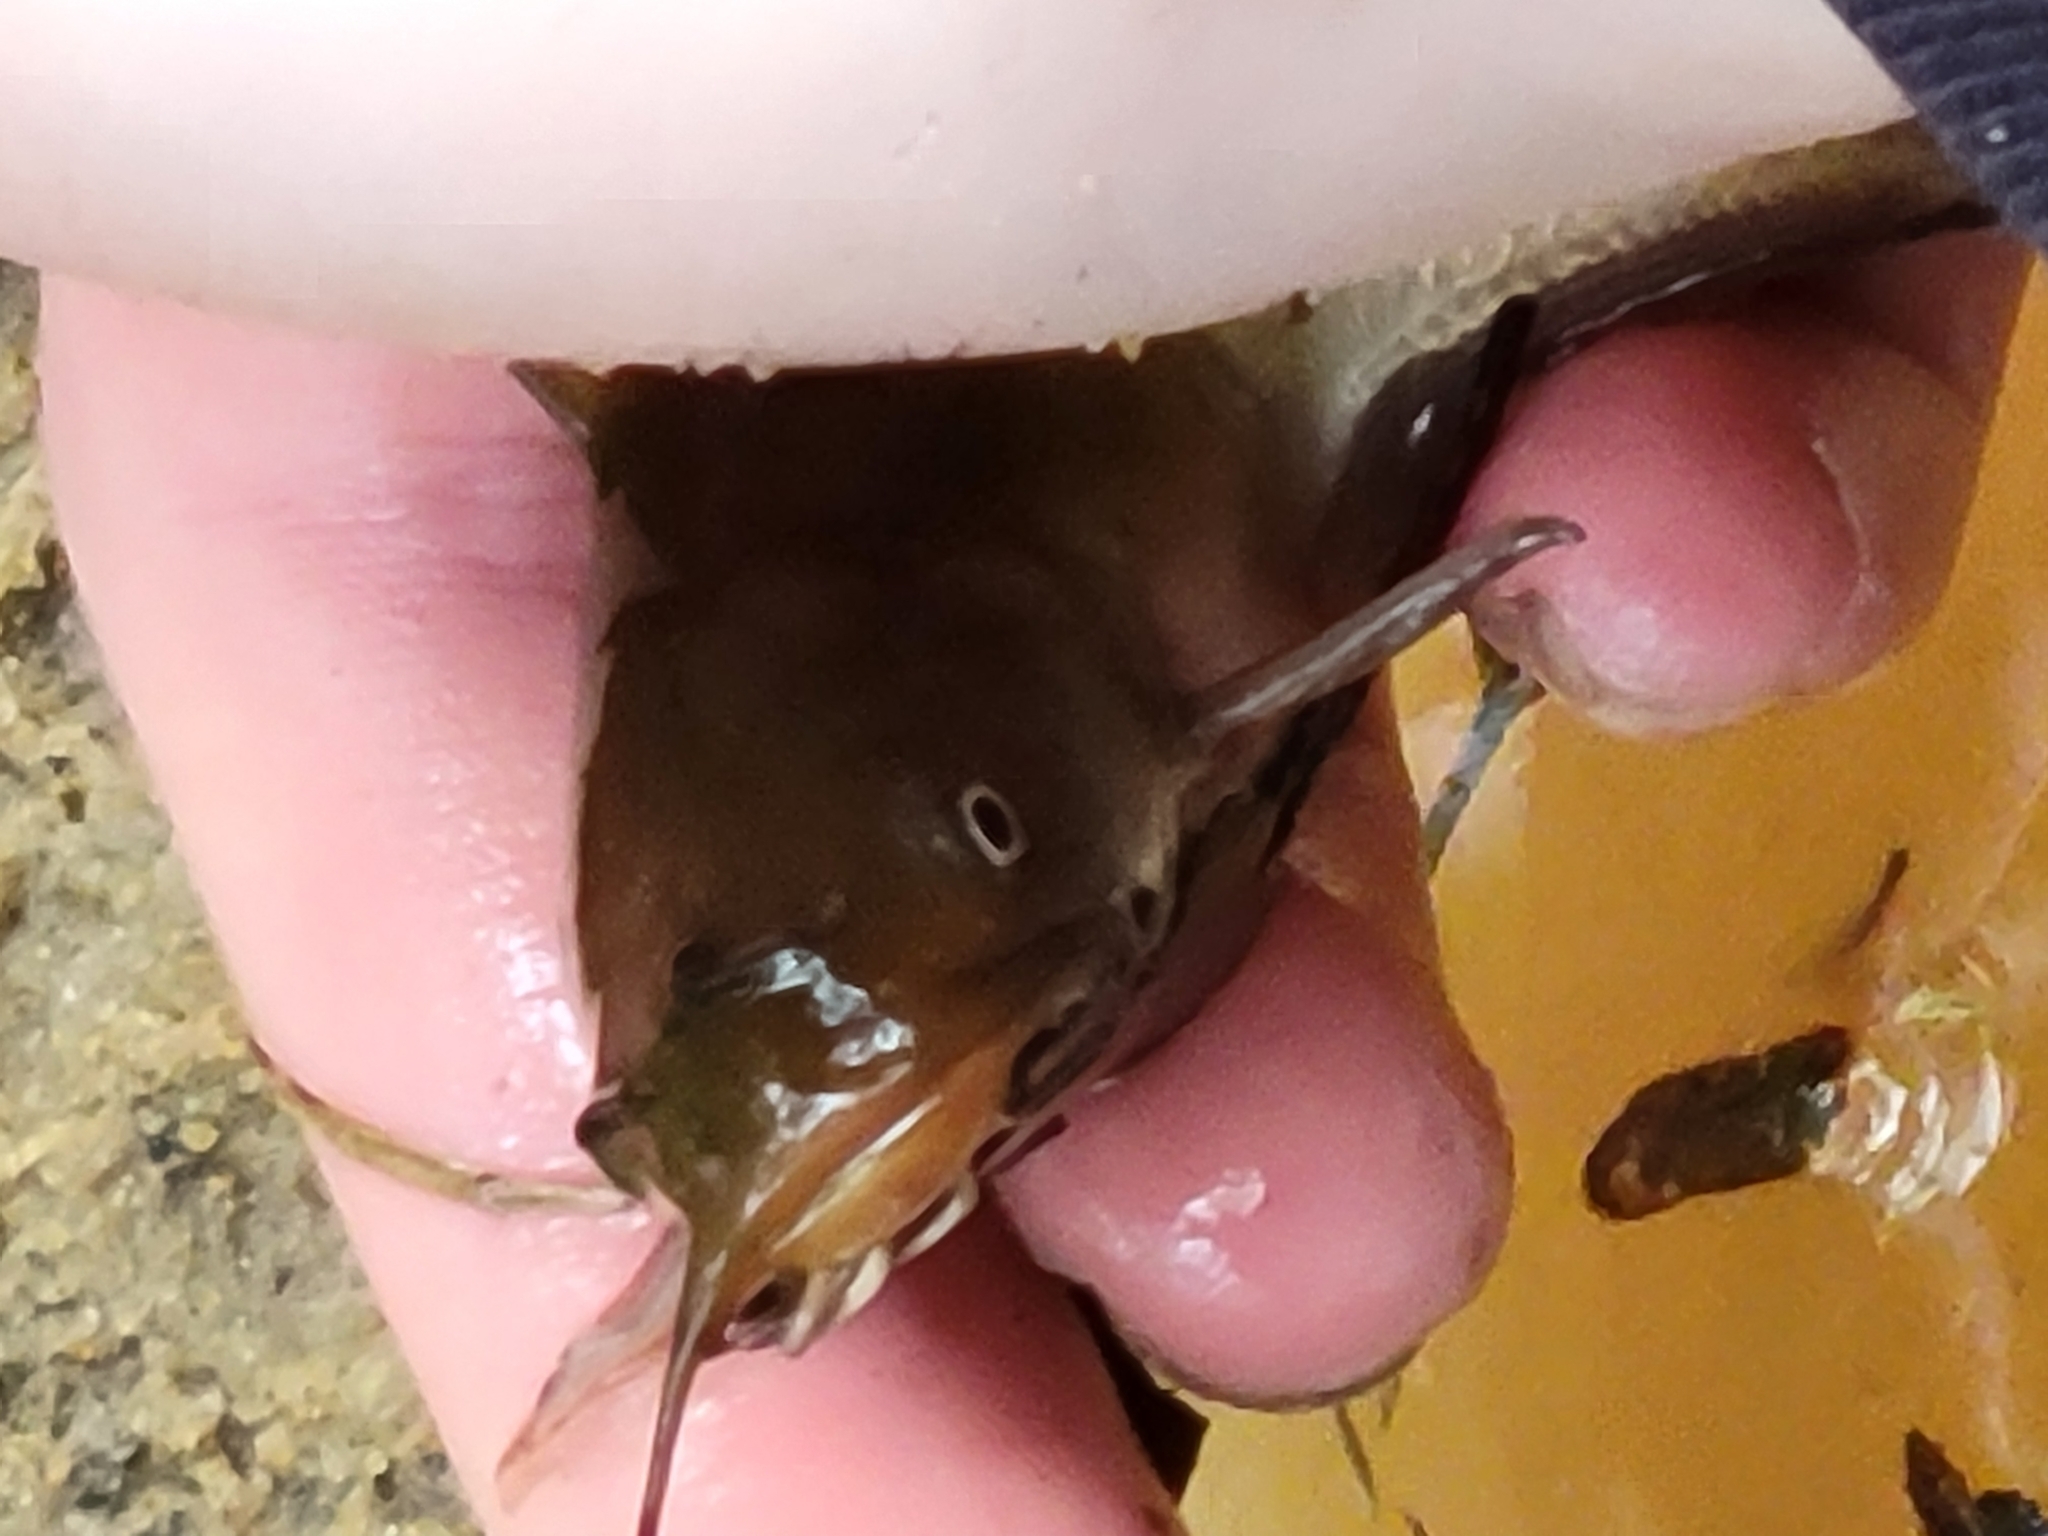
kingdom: Animalia
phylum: Chordata
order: Siluriformes
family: Ictaluridae
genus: Ameiurus
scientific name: Ameiurus nebulosus
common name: Brown bullhead
